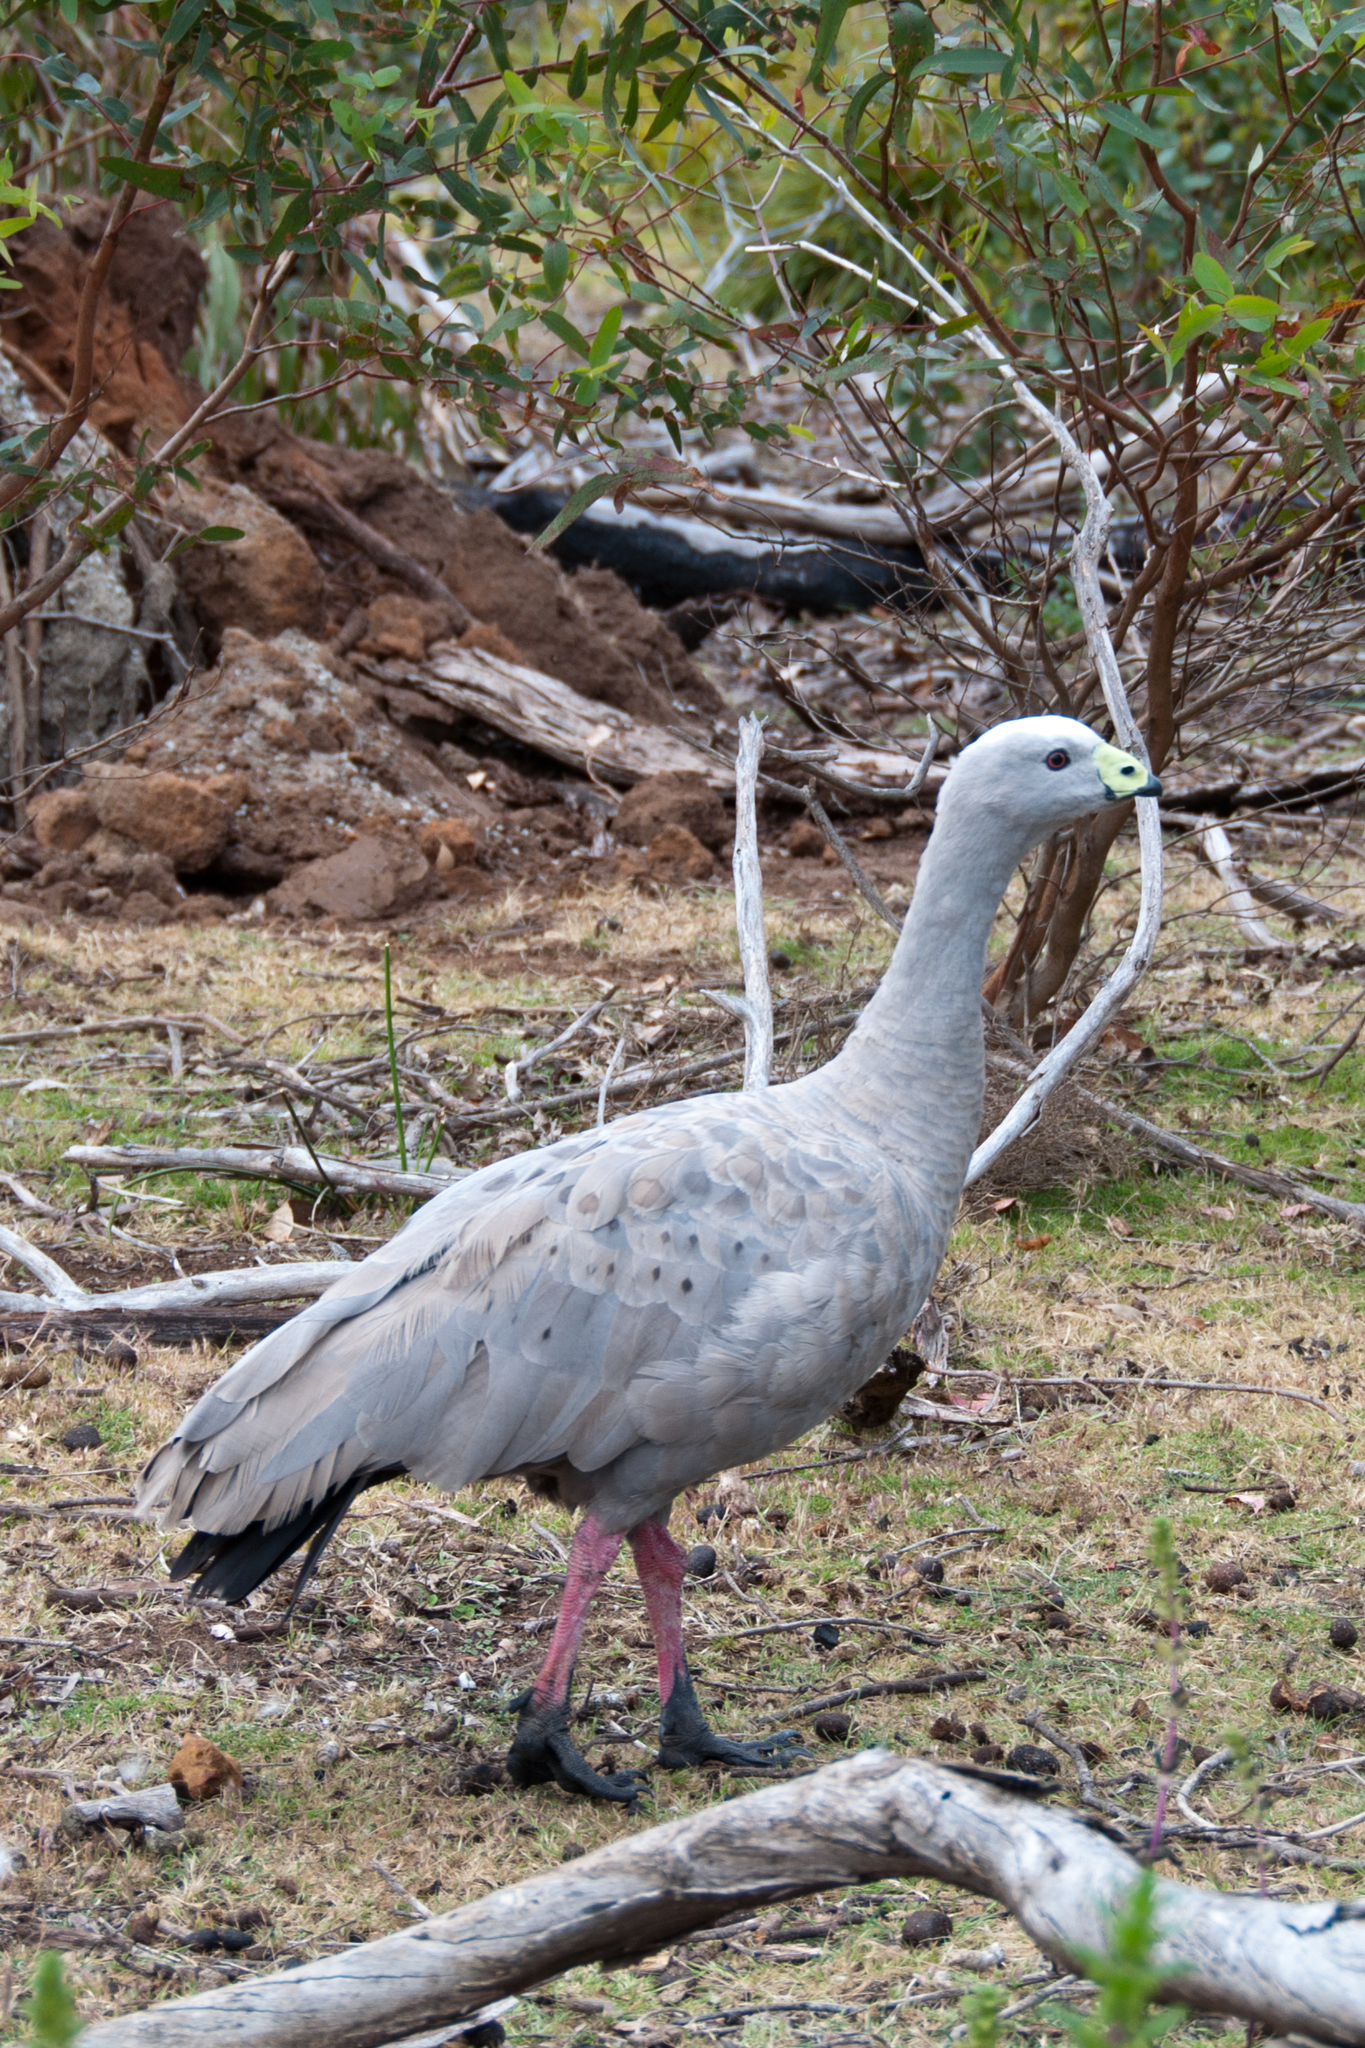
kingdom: Animalia
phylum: Chordata
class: Aves
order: Anseriformes
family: Anatidae
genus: Cereopsis
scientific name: Cereopsis novaehollandiae
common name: Cape barren goose
